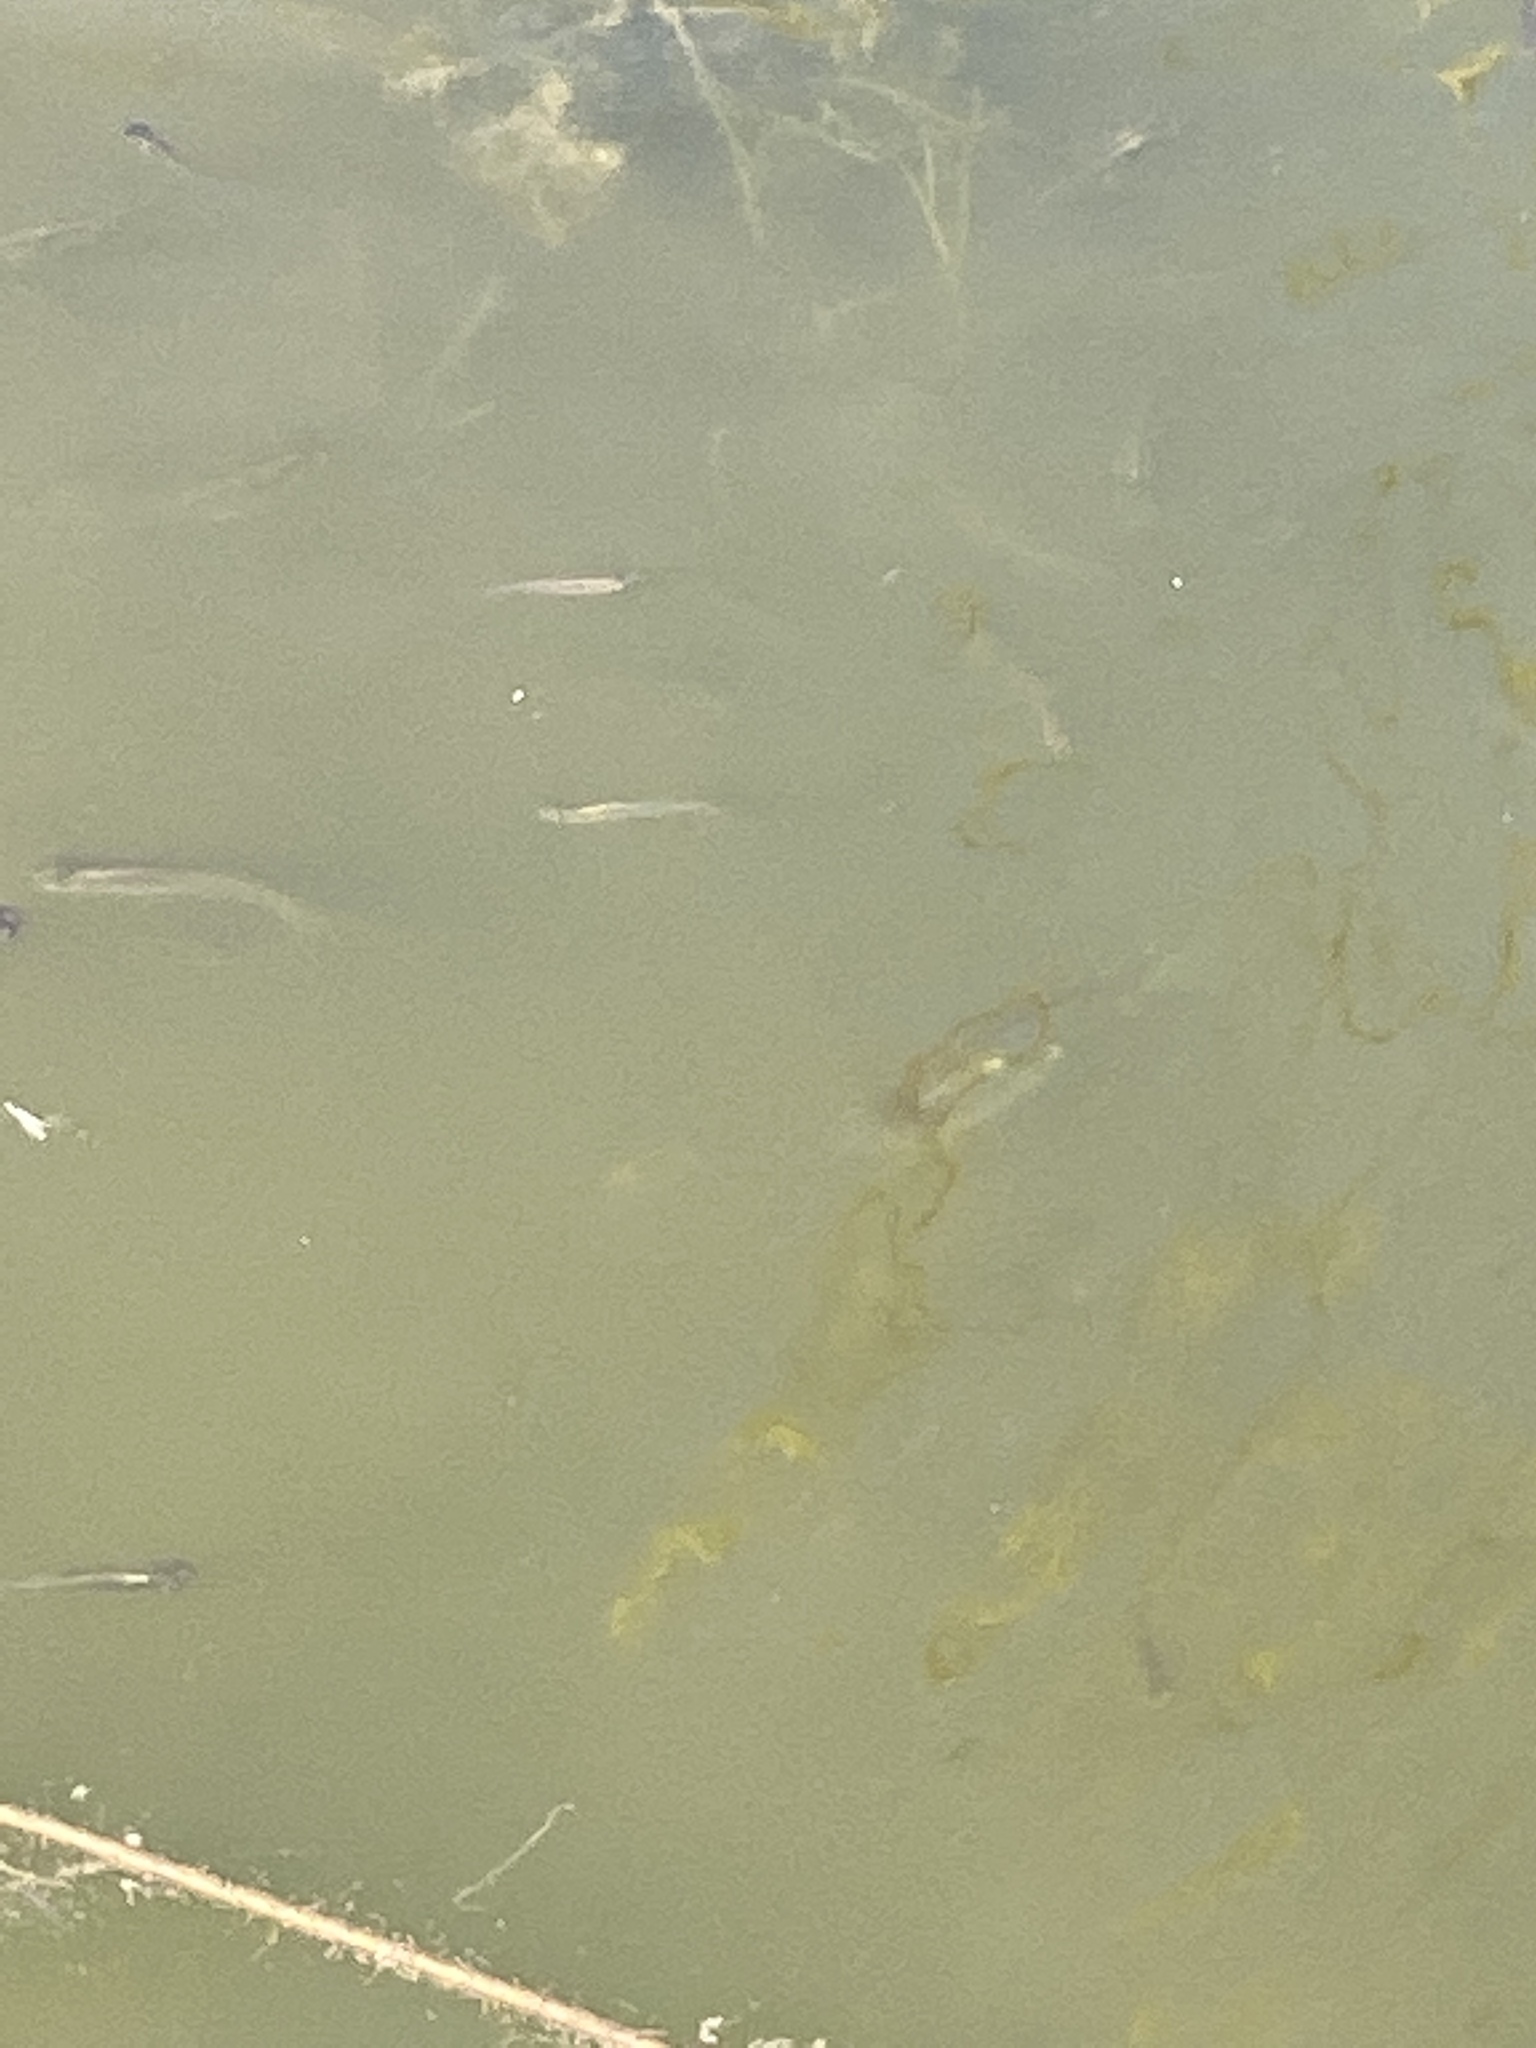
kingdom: Animalia
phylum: Chordata
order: Cyprinodontiformes
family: Poeciliidae
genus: Gambusia
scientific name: Gambusia affinis
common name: Mosquitofish
